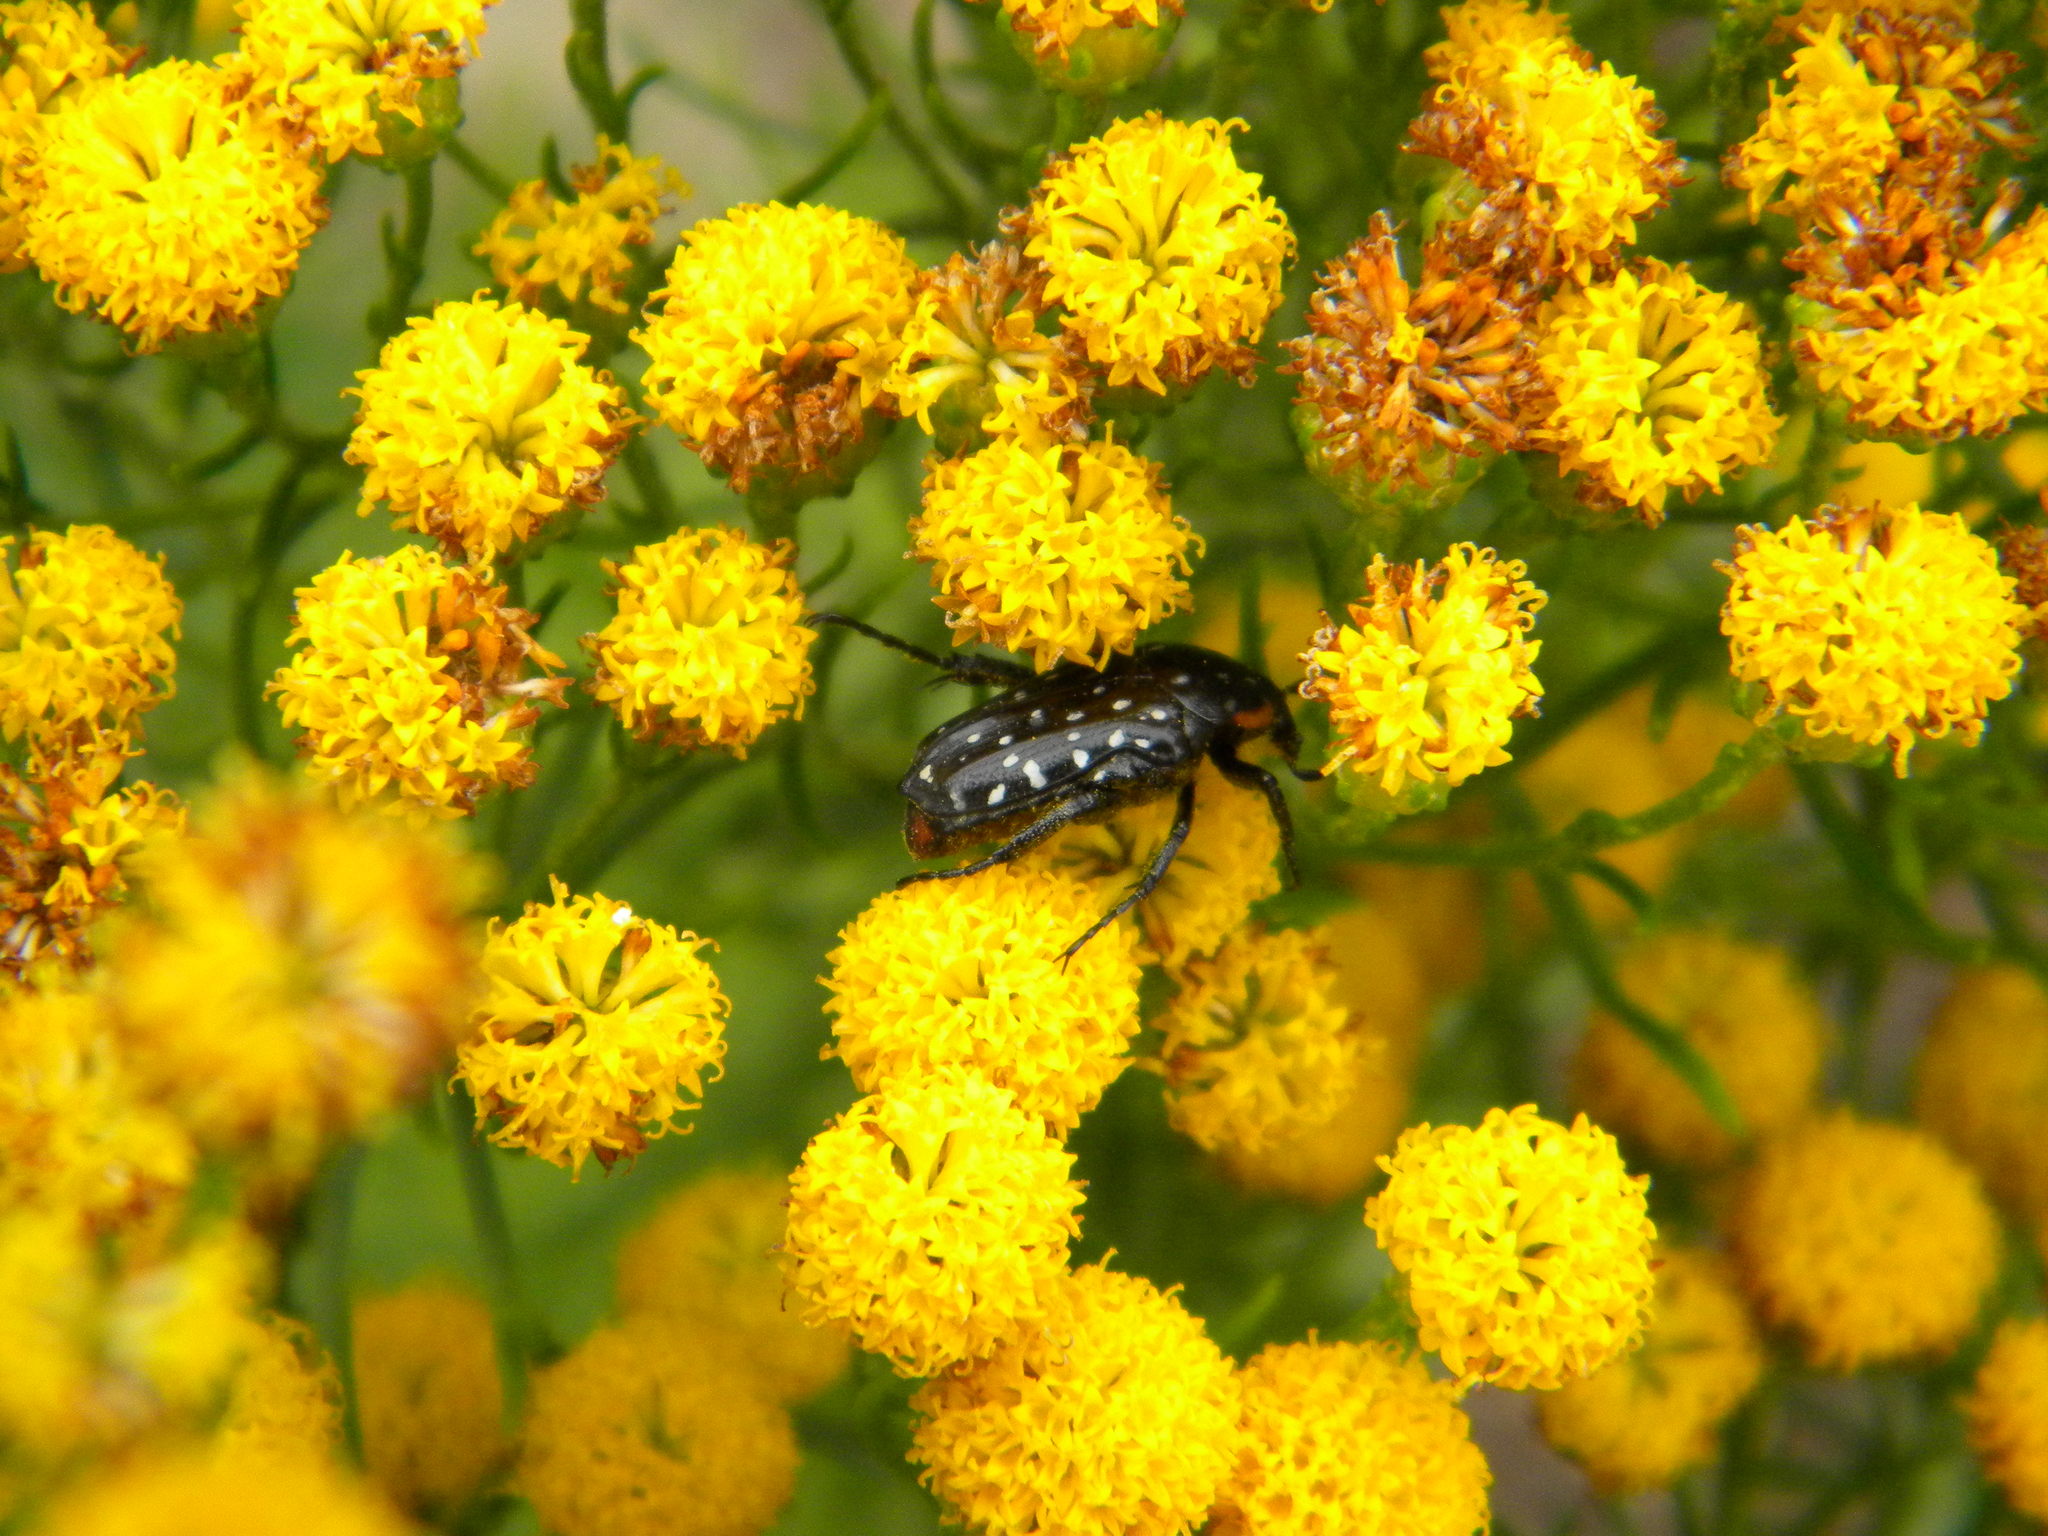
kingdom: Animalia
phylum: Arthropoda
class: Insecta
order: Coleoptera
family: Scarabaeidae
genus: Oxythyrea
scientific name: Oxythyrea
